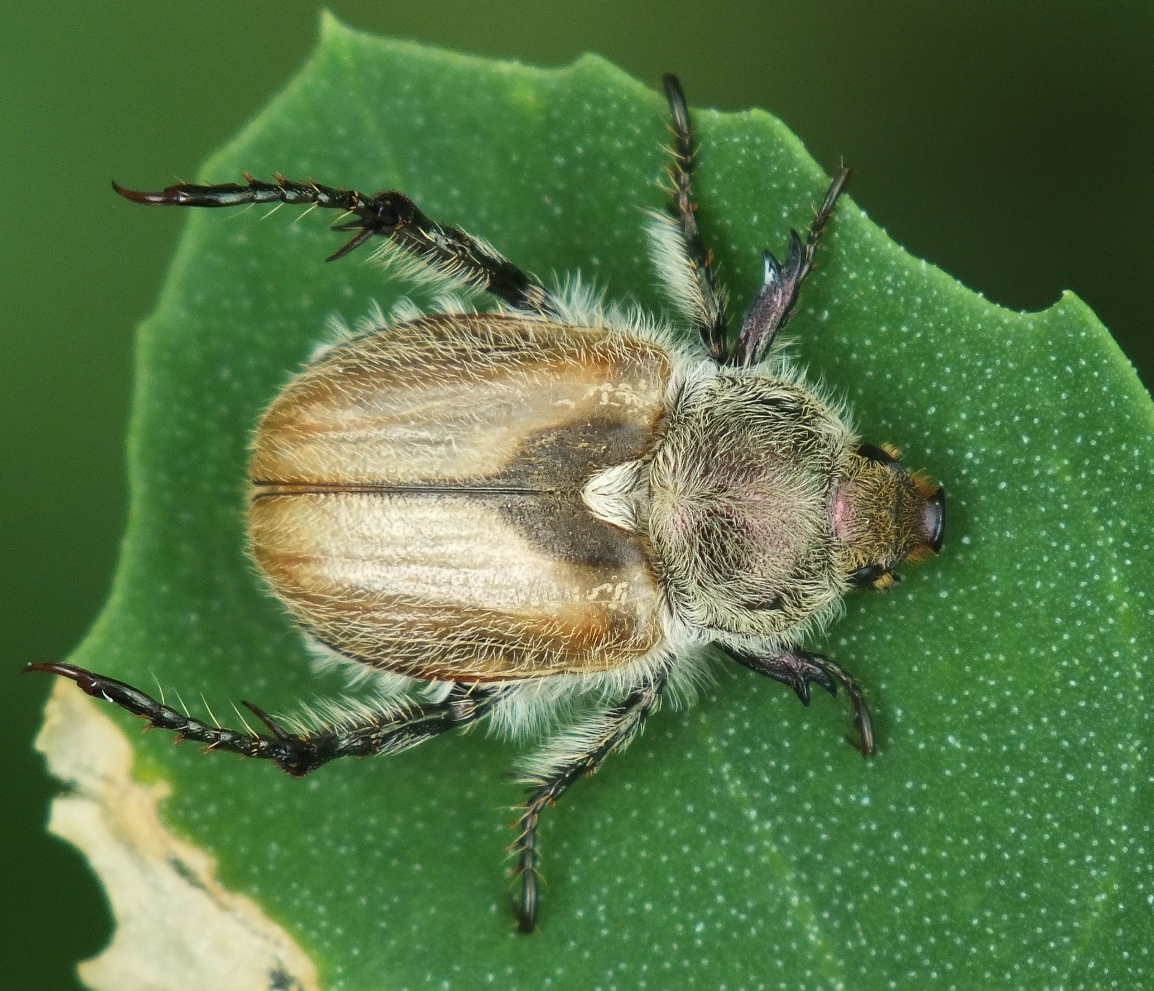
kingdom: Animalia
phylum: Arthropoda
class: Insecta
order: Coleoptera
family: Scarabaeidae
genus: Chaetopteroplia
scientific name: Chaetopteroplia segetum
